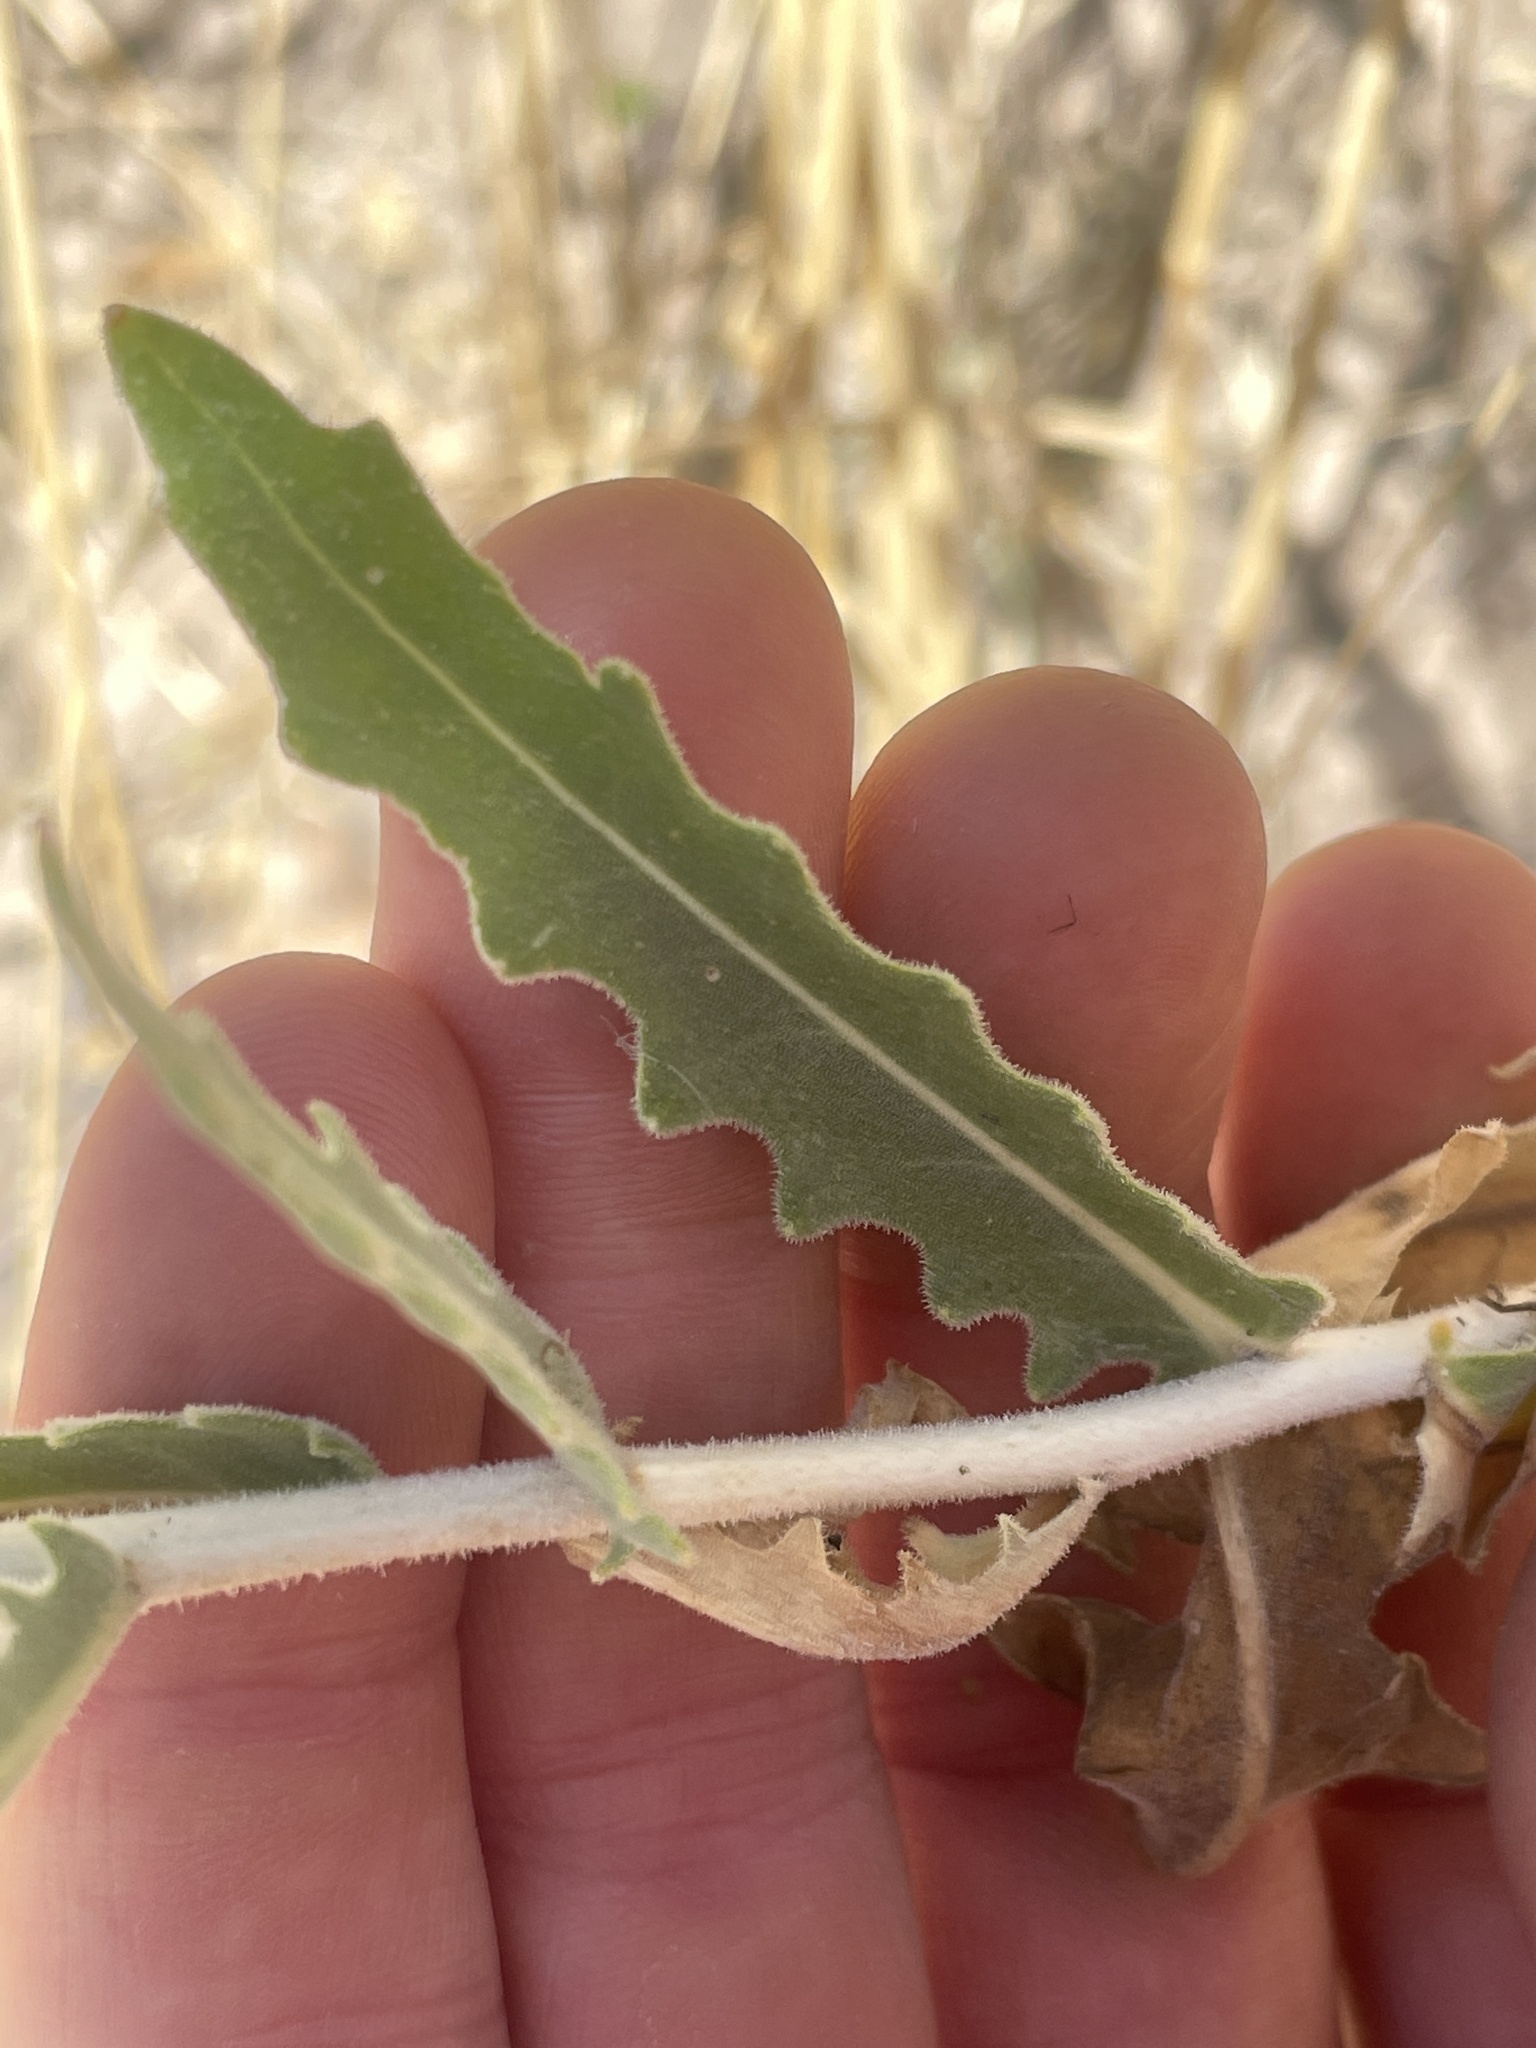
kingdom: Plantae
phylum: Tracheophyta
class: Magnoliopsida
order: Cornales
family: Loasaceae
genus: Mentzelia
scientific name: Mentzelia laevicaulis
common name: Smooth-stem blazingstar
